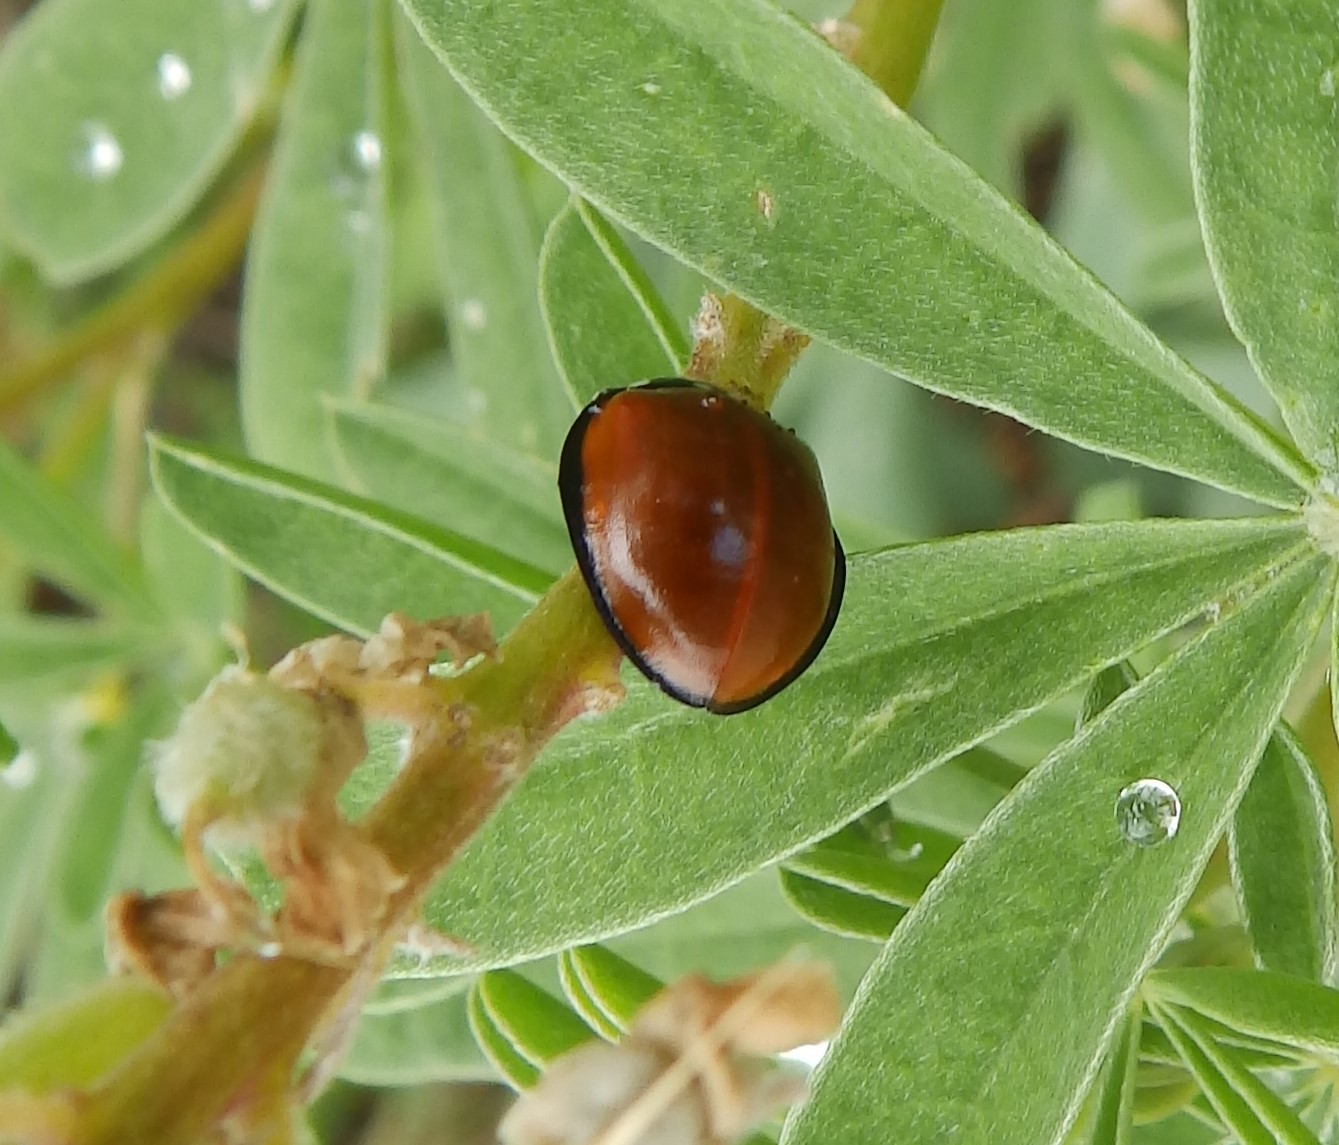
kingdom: Animalia
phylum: Arthropoda
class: Insecta
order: Coleoptera
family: Coccinellidae
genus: Anatis
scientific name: Anatis lecontei
